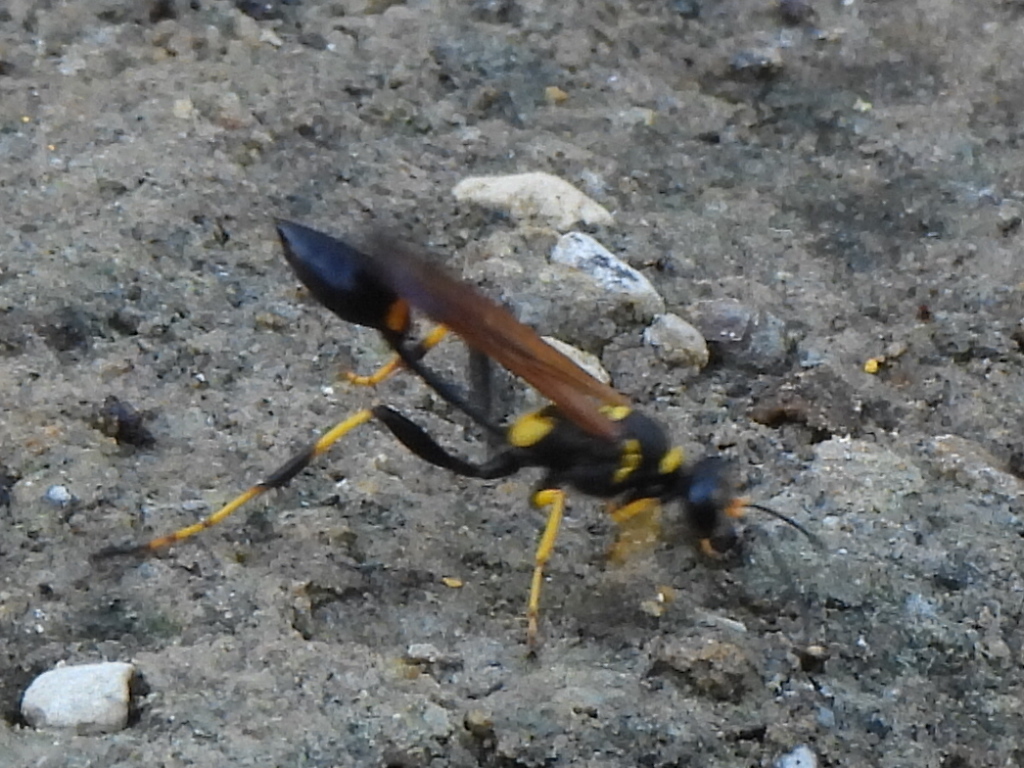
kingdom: Animalia
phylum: Arthropoda
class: Insecta
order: Hymenoptera
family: Sphecidae
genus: Sceliphron
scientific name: Sceliphron caementarium
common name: Mud dauber
